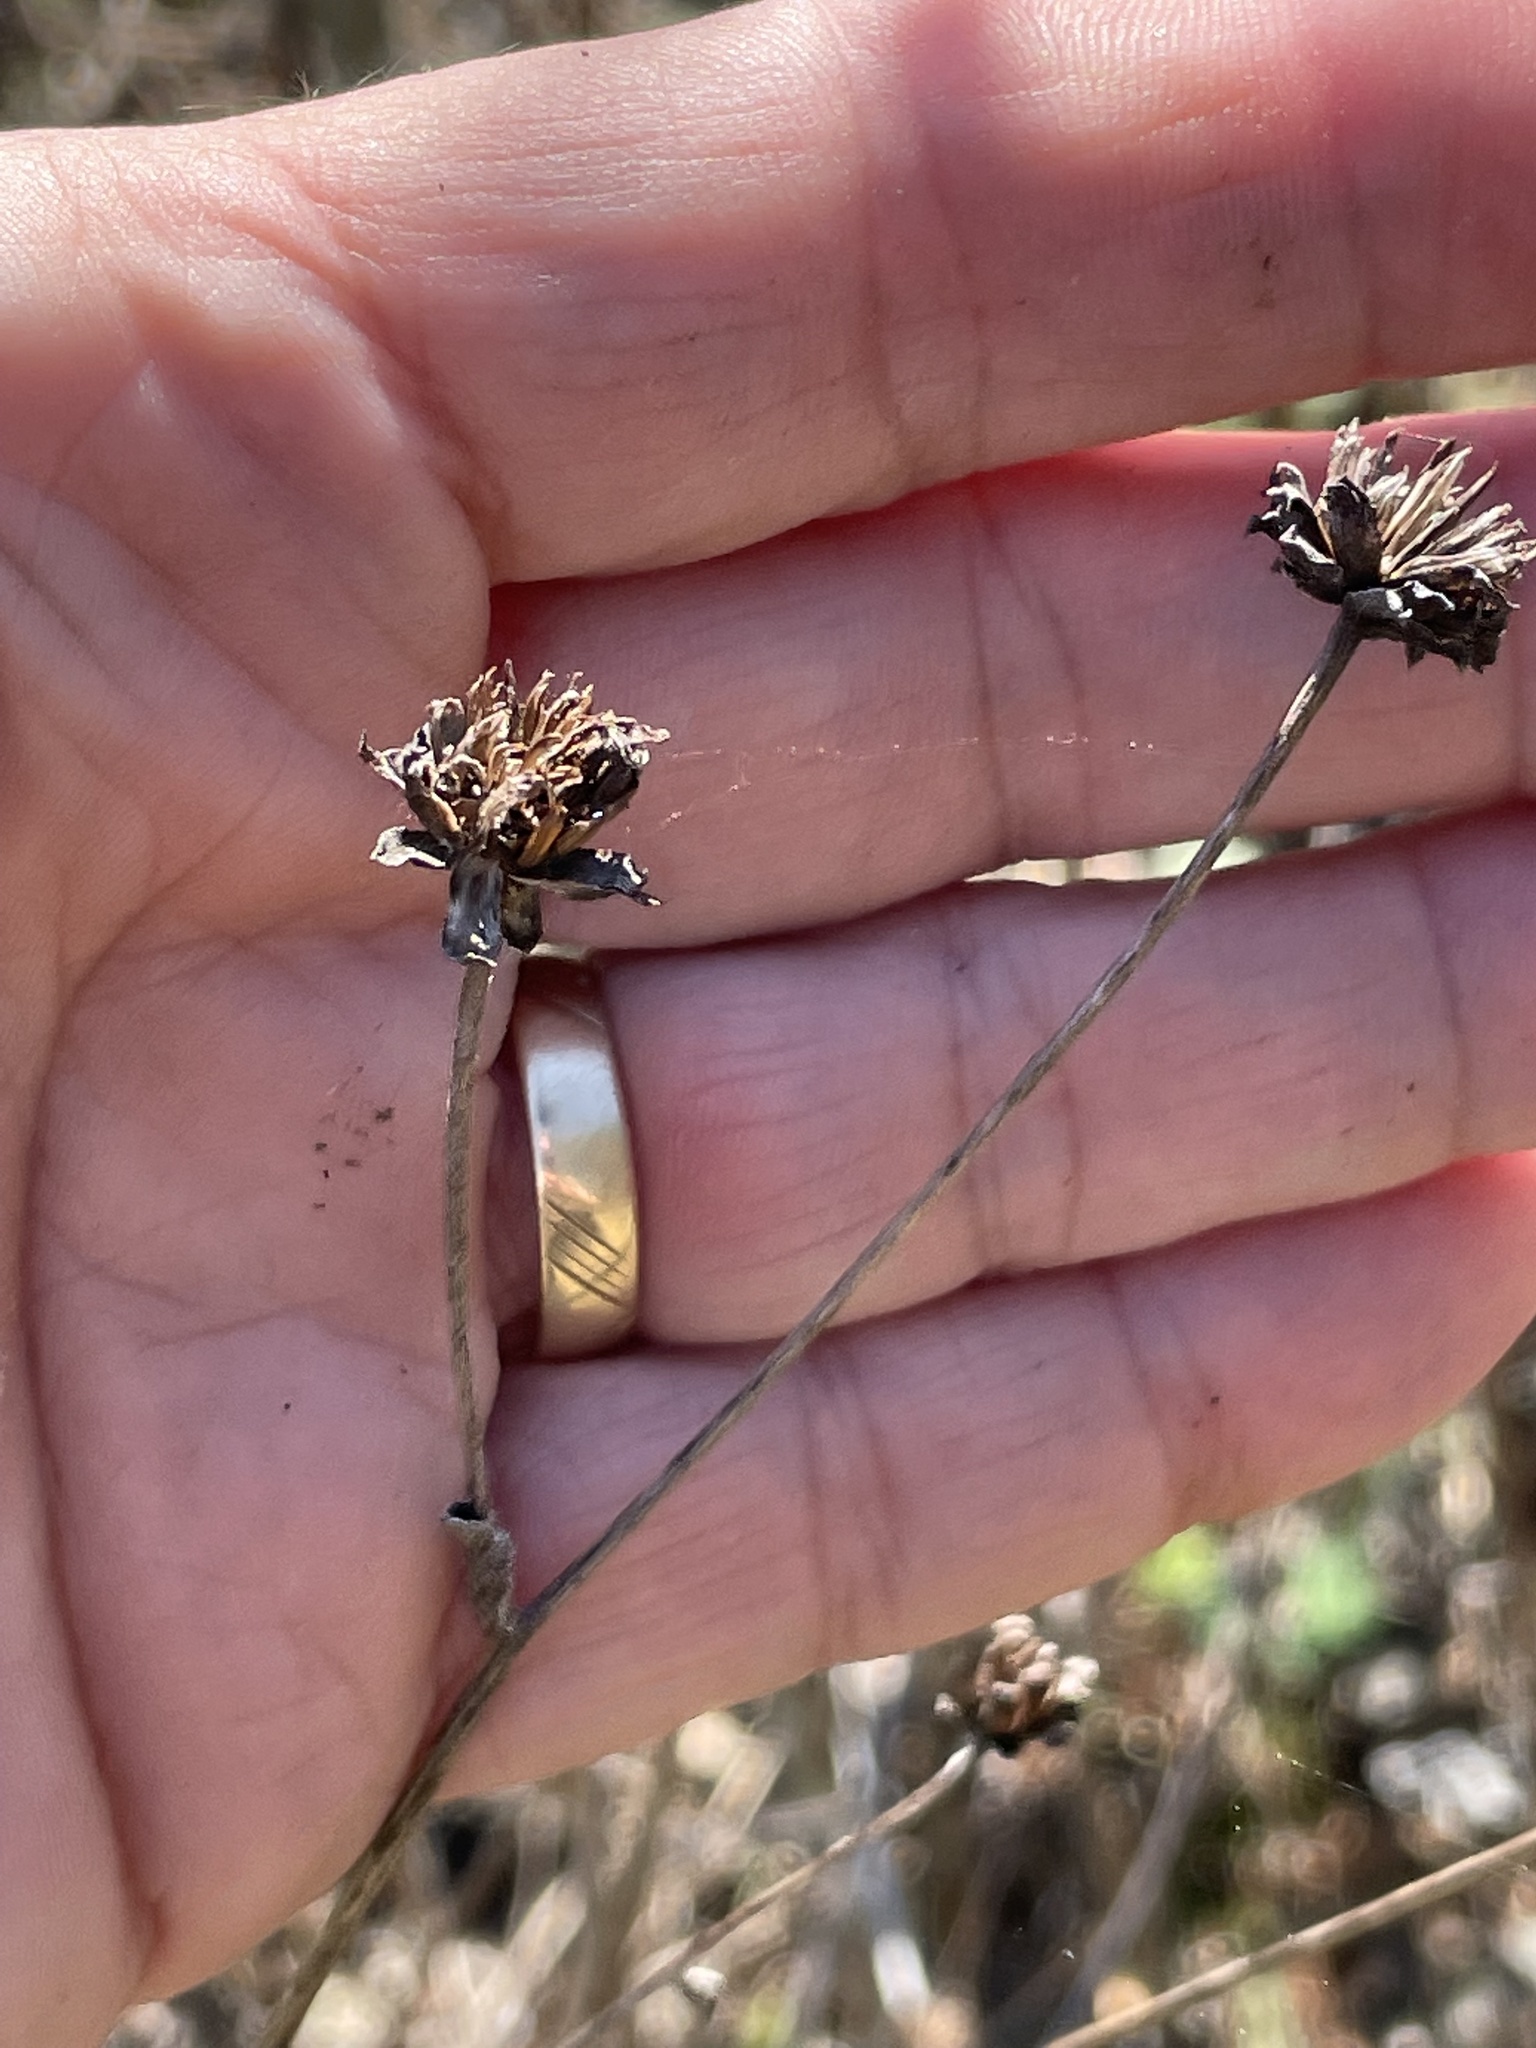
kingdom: Plantae
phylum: Tracheophyta
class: Magnoliopsida
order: Asterales
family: Asteraceae
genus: Helianthus
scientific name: Helianthus atrorubens
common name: Dark-eyed sunflower
